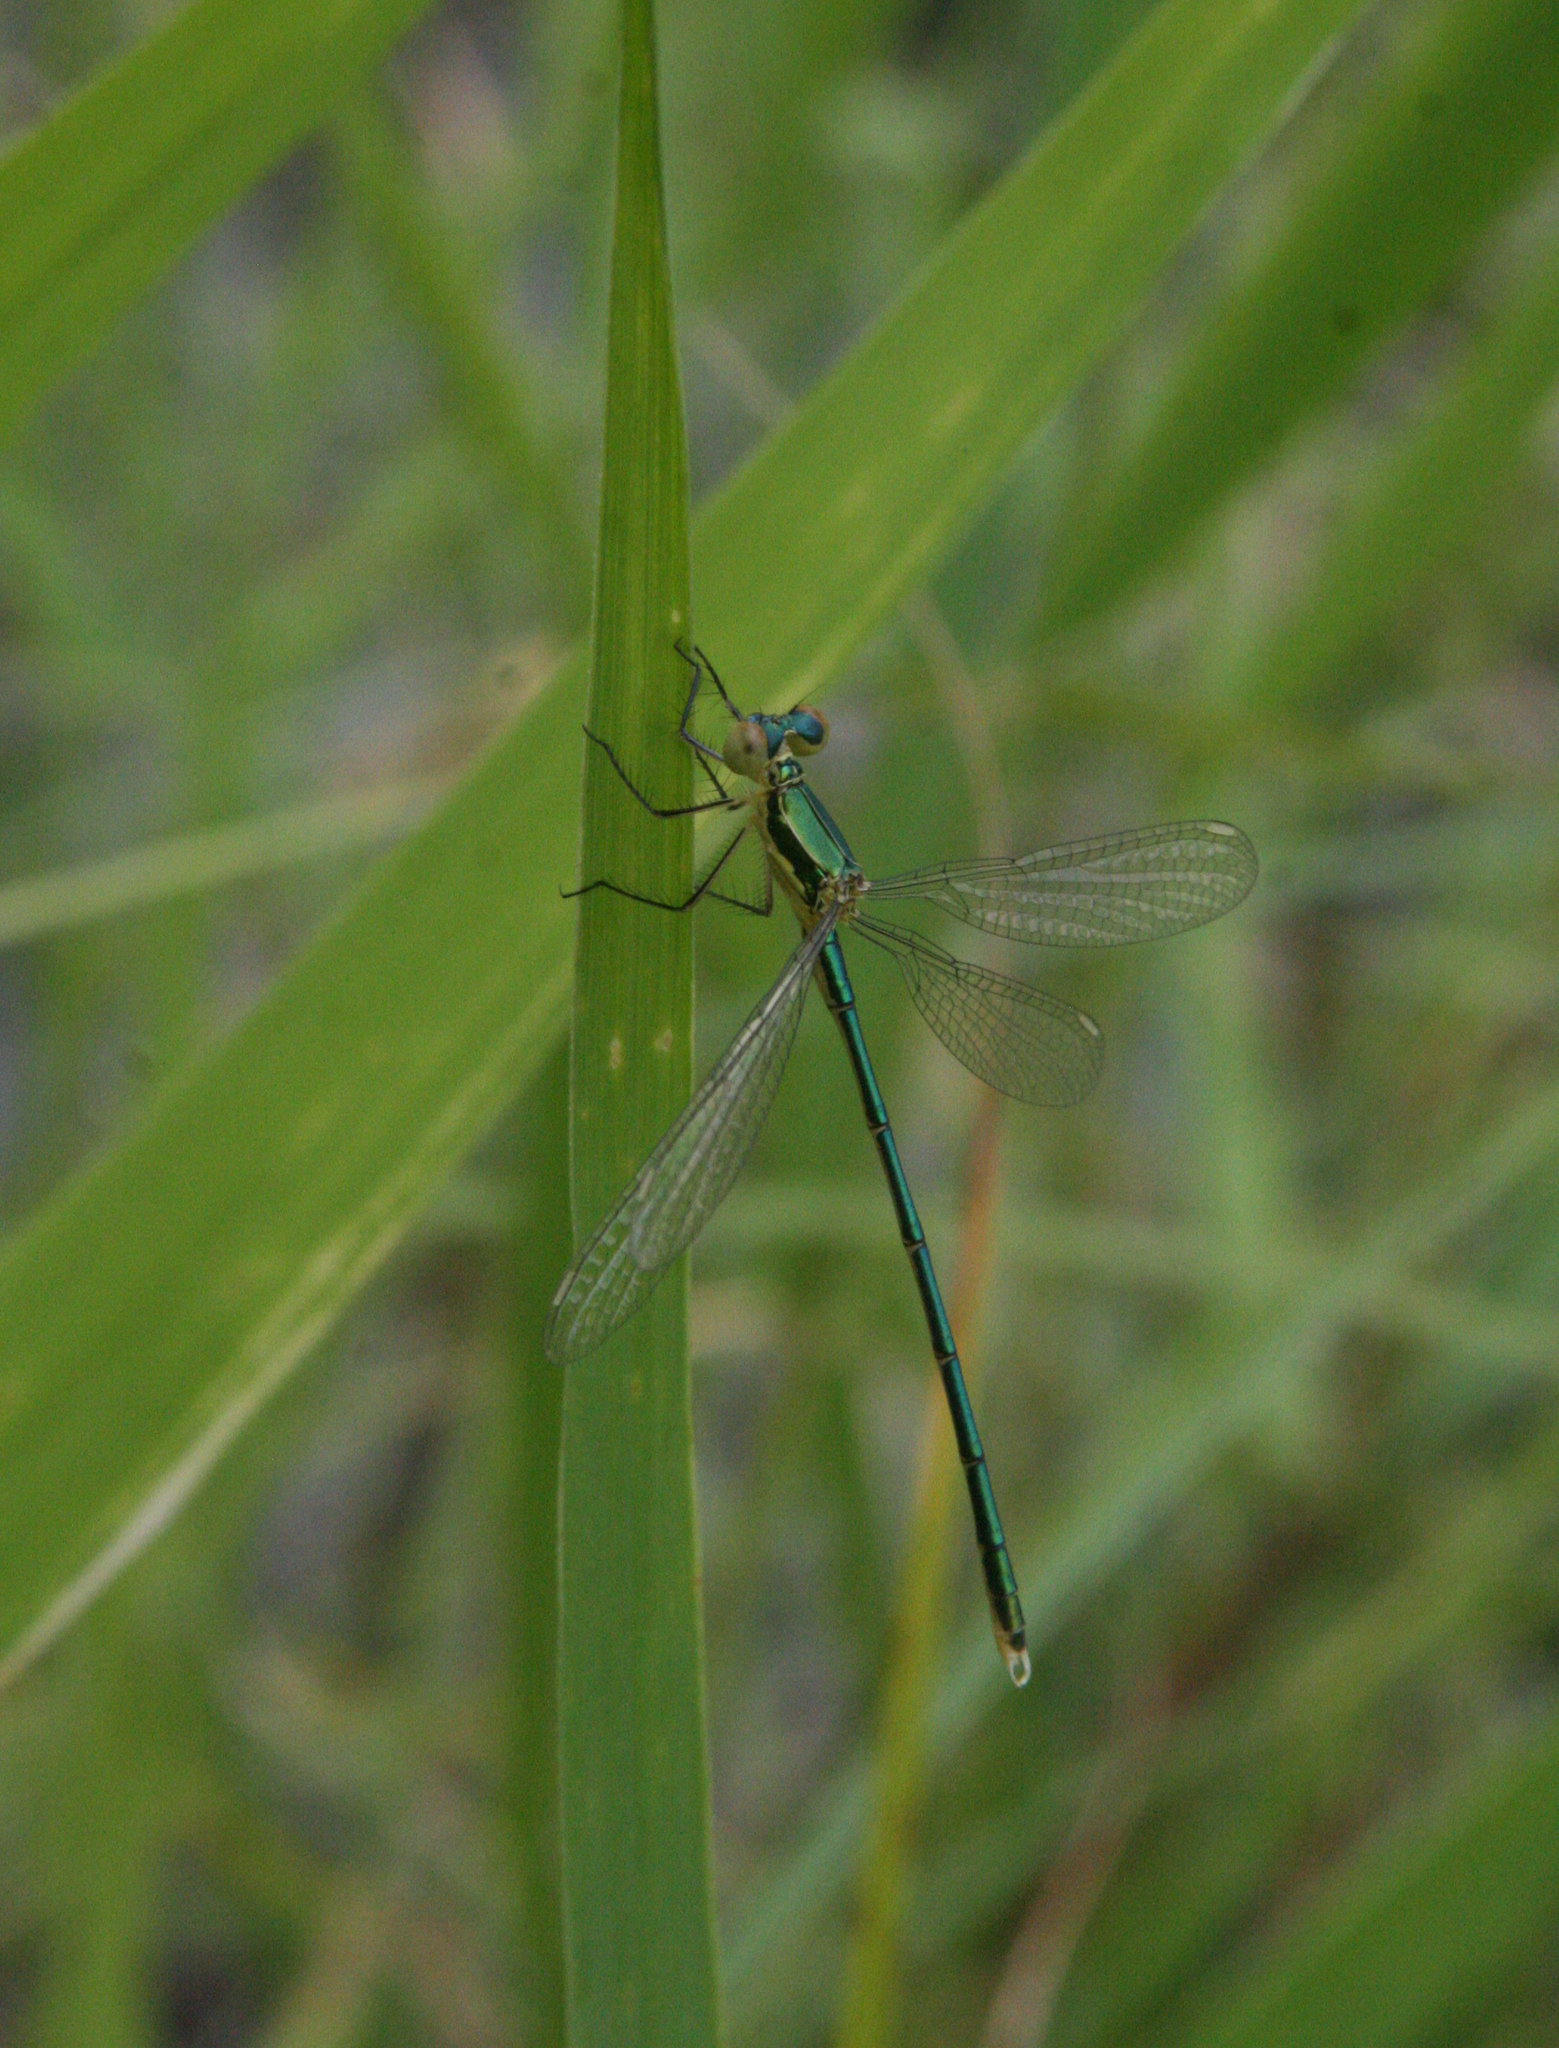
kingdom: Animalia
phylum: Arthropoda
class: Insecta
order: Odonata
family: Lestidae
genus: Lestes
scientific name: Lestes virens
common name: Small emerald spreadwing
